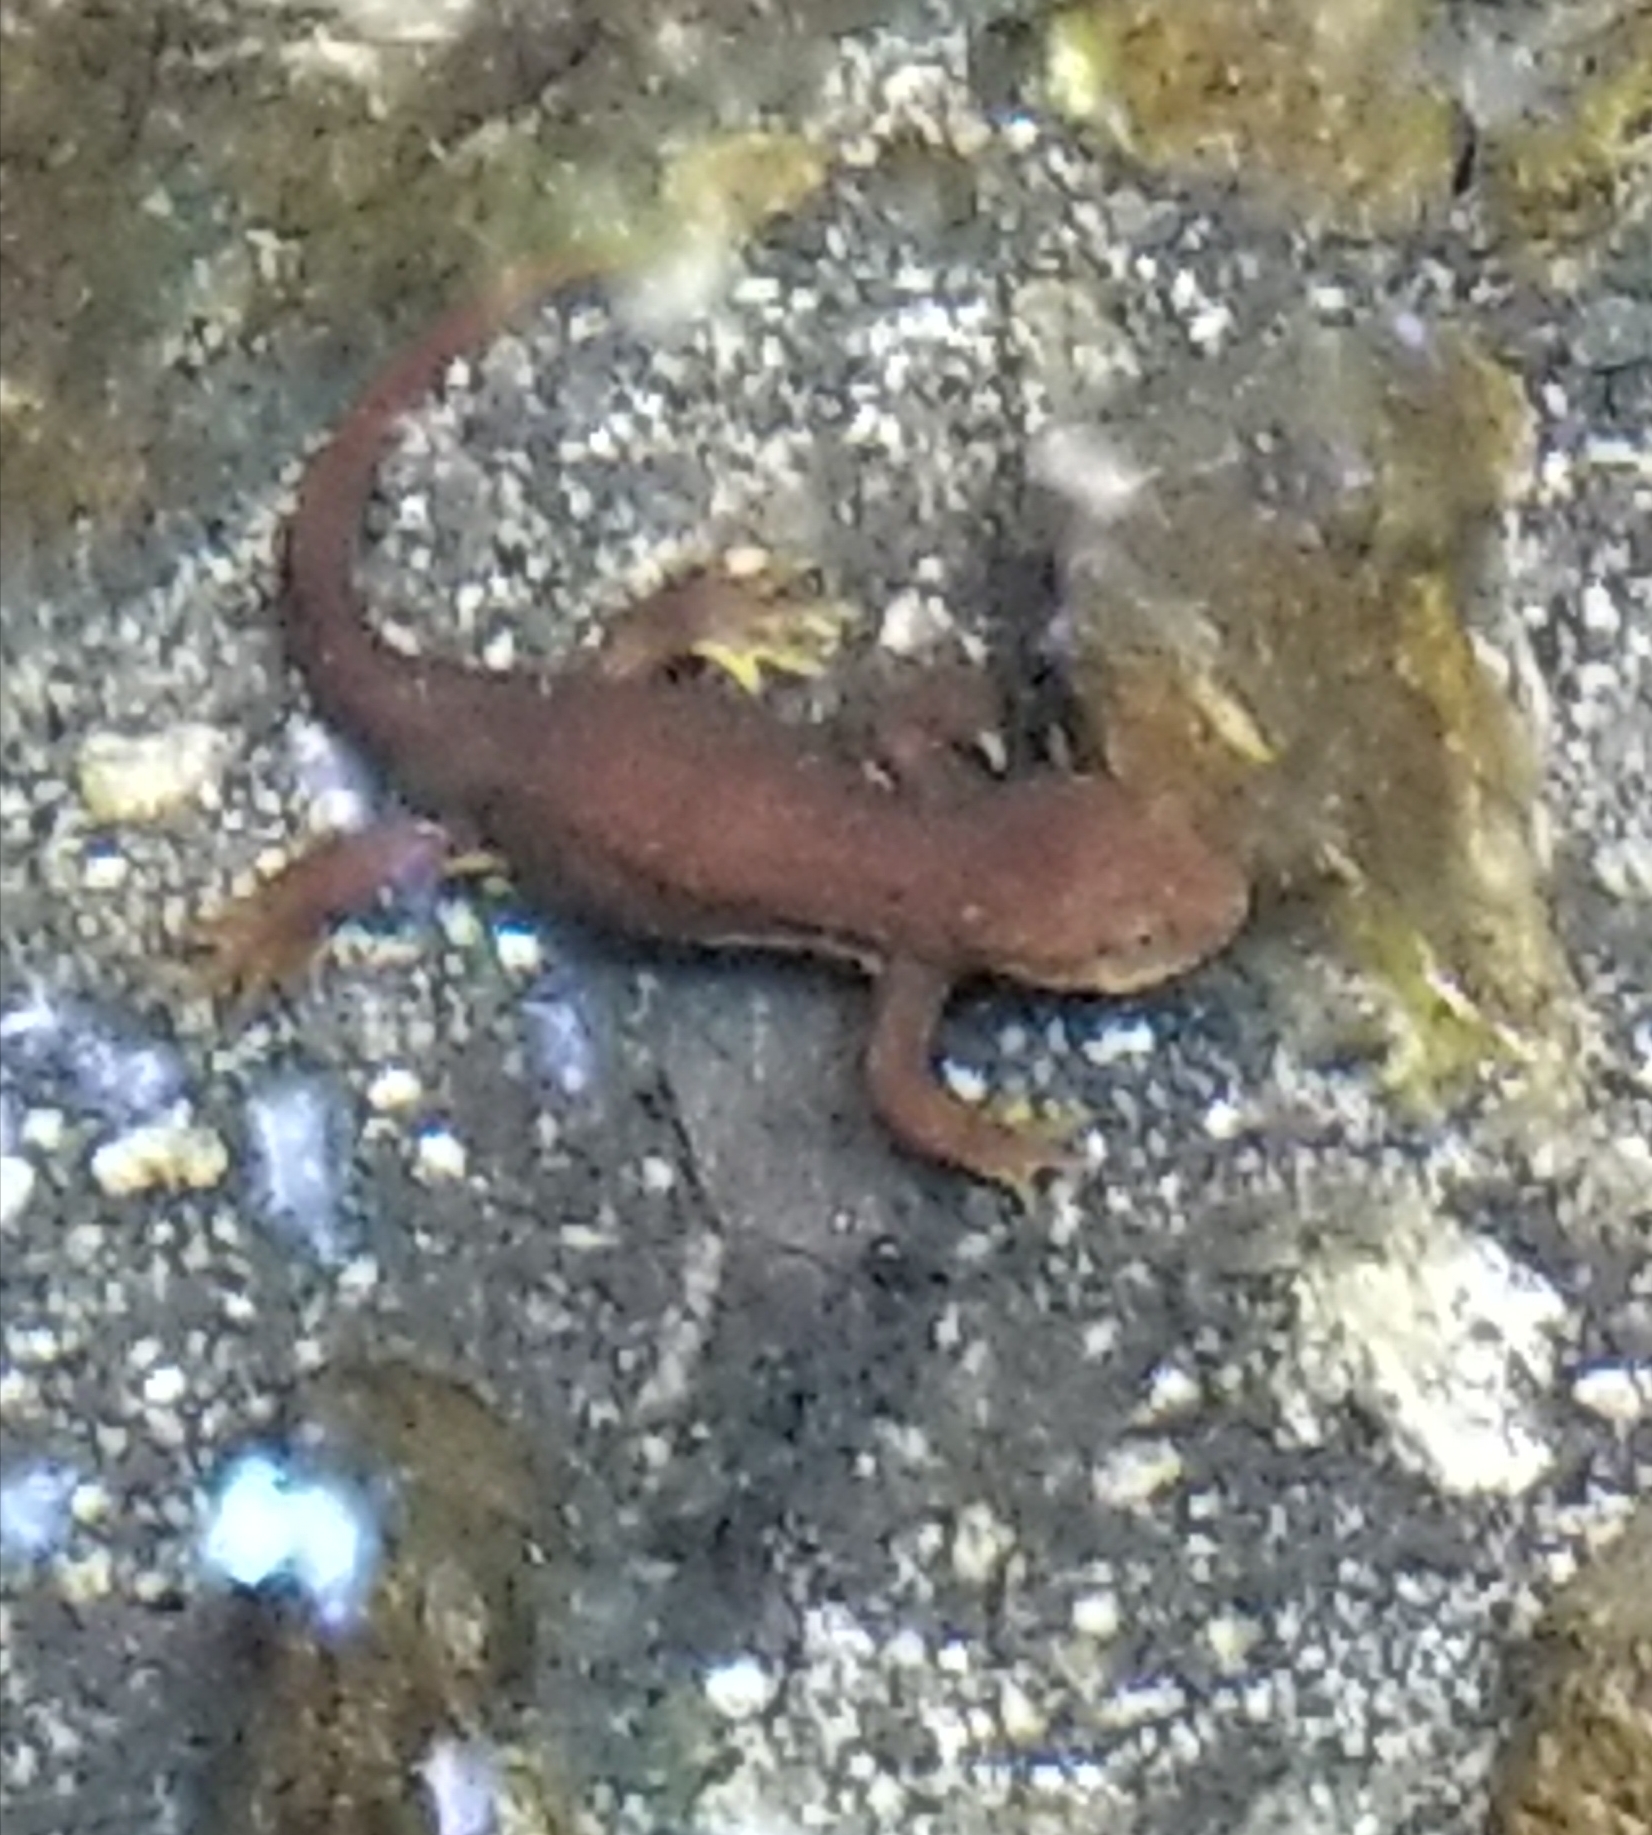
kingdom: Animalia
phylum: Chordata
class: Amphibia
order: Caudata
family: Salamandridae
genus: Taricha
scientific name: Taricha torosa
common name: California newt
